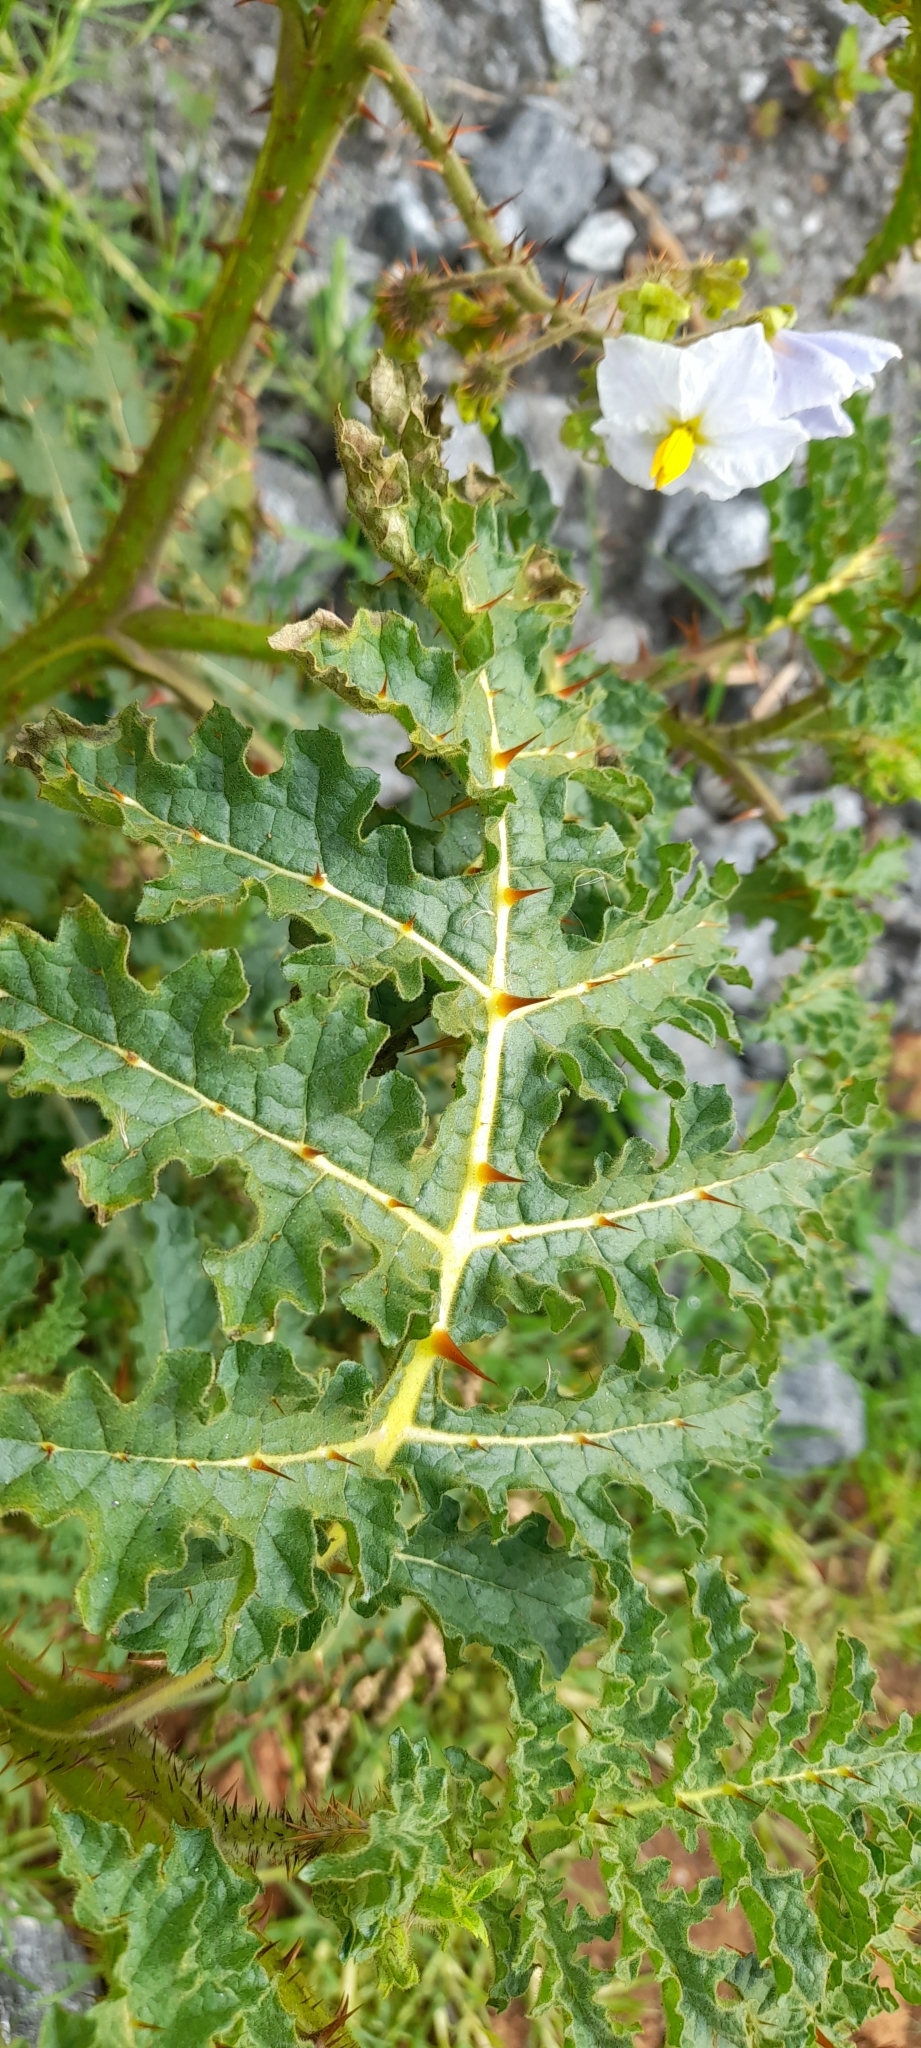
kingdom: Plantae
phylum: Tracheophyta
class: Magnoliopsida
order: Solanales
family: Solanaceae
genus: Solanum
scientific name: Solanum sisymbriifolium
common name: Red buffalo-bur
